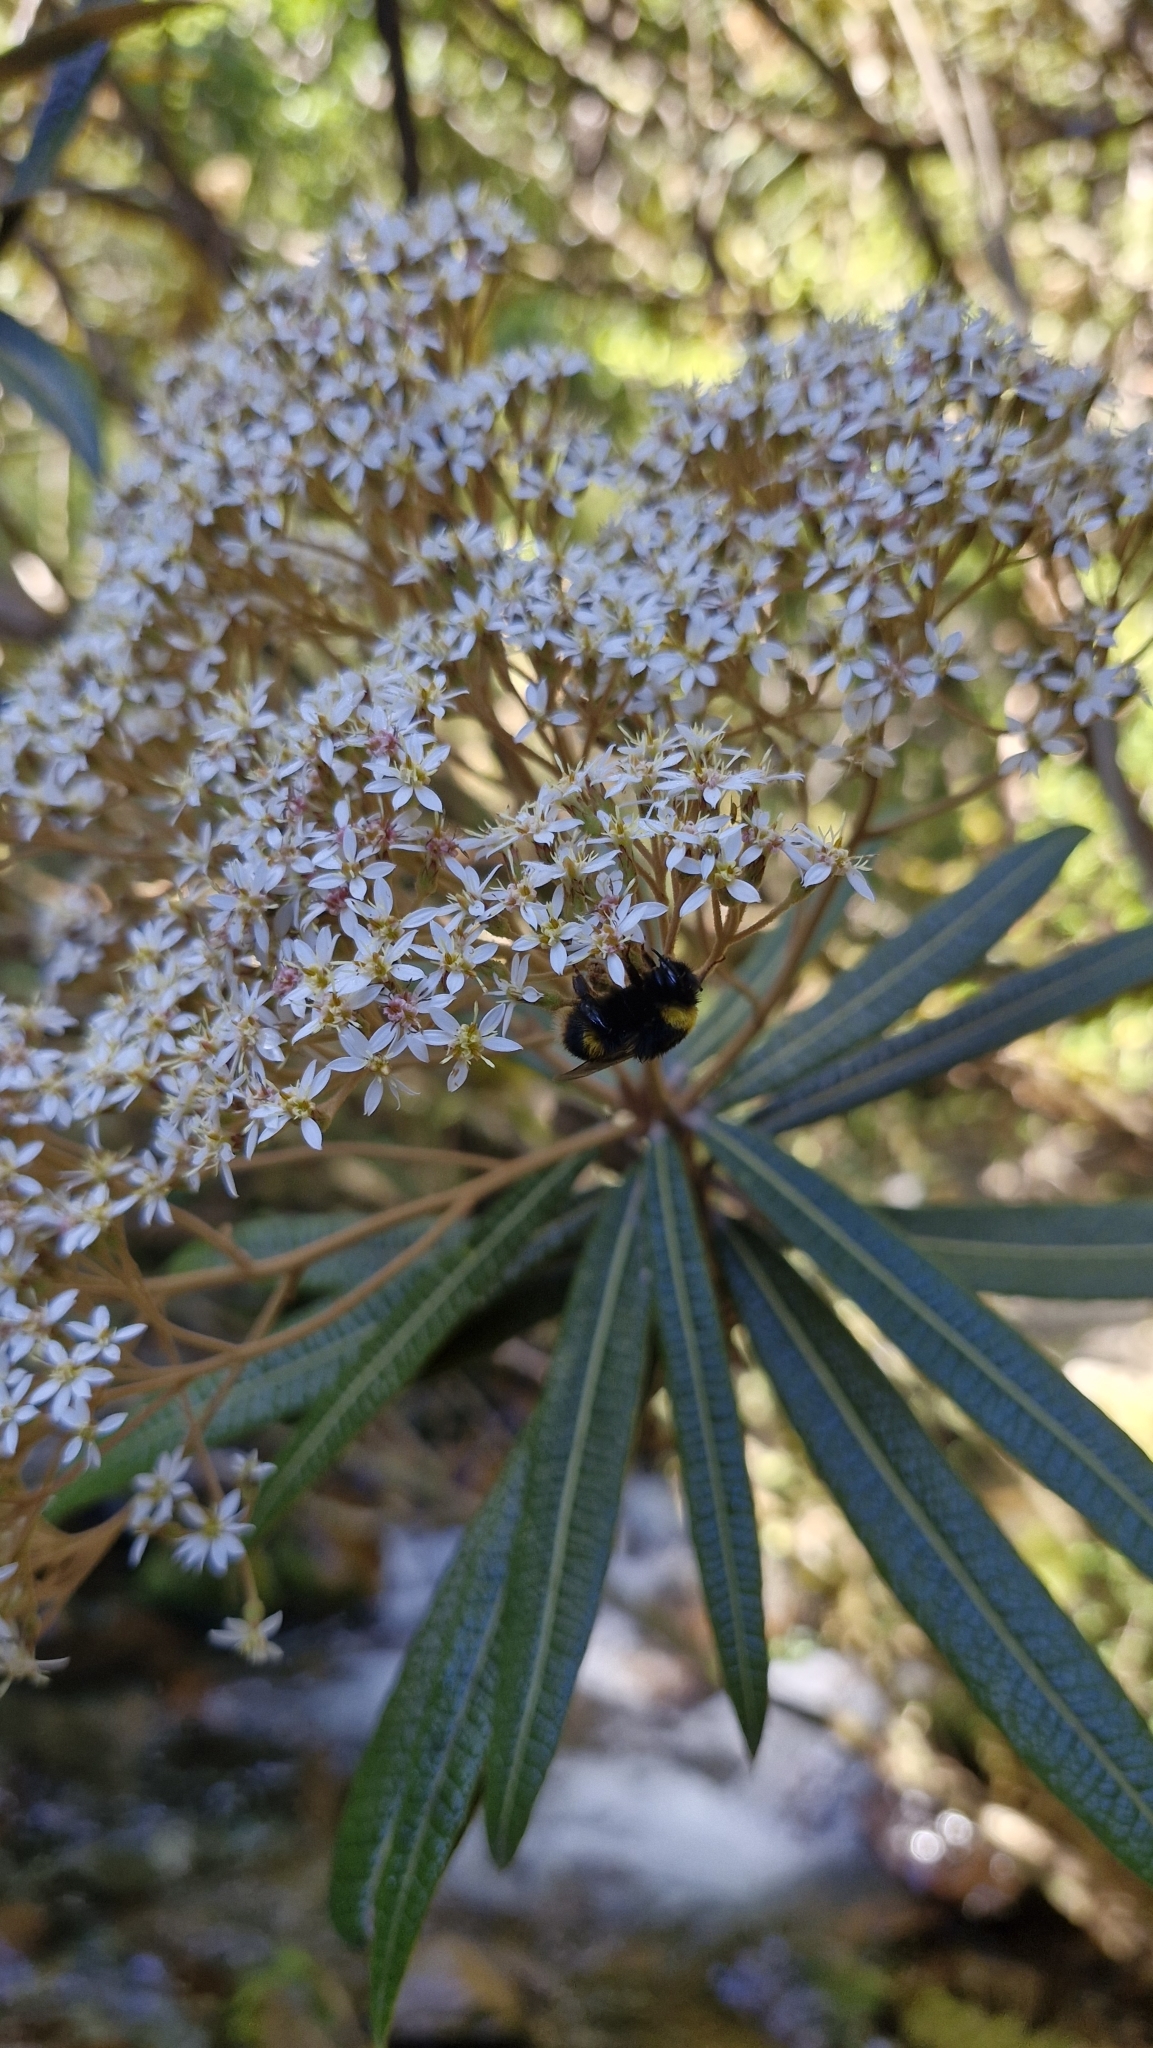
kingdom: Plantae
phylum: Tracheophyta
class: Magnoliopsida
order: Asterales
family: Asteraceae
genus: Olearia
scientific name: Olearia lacunosa
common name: Lancewood tree daisy
